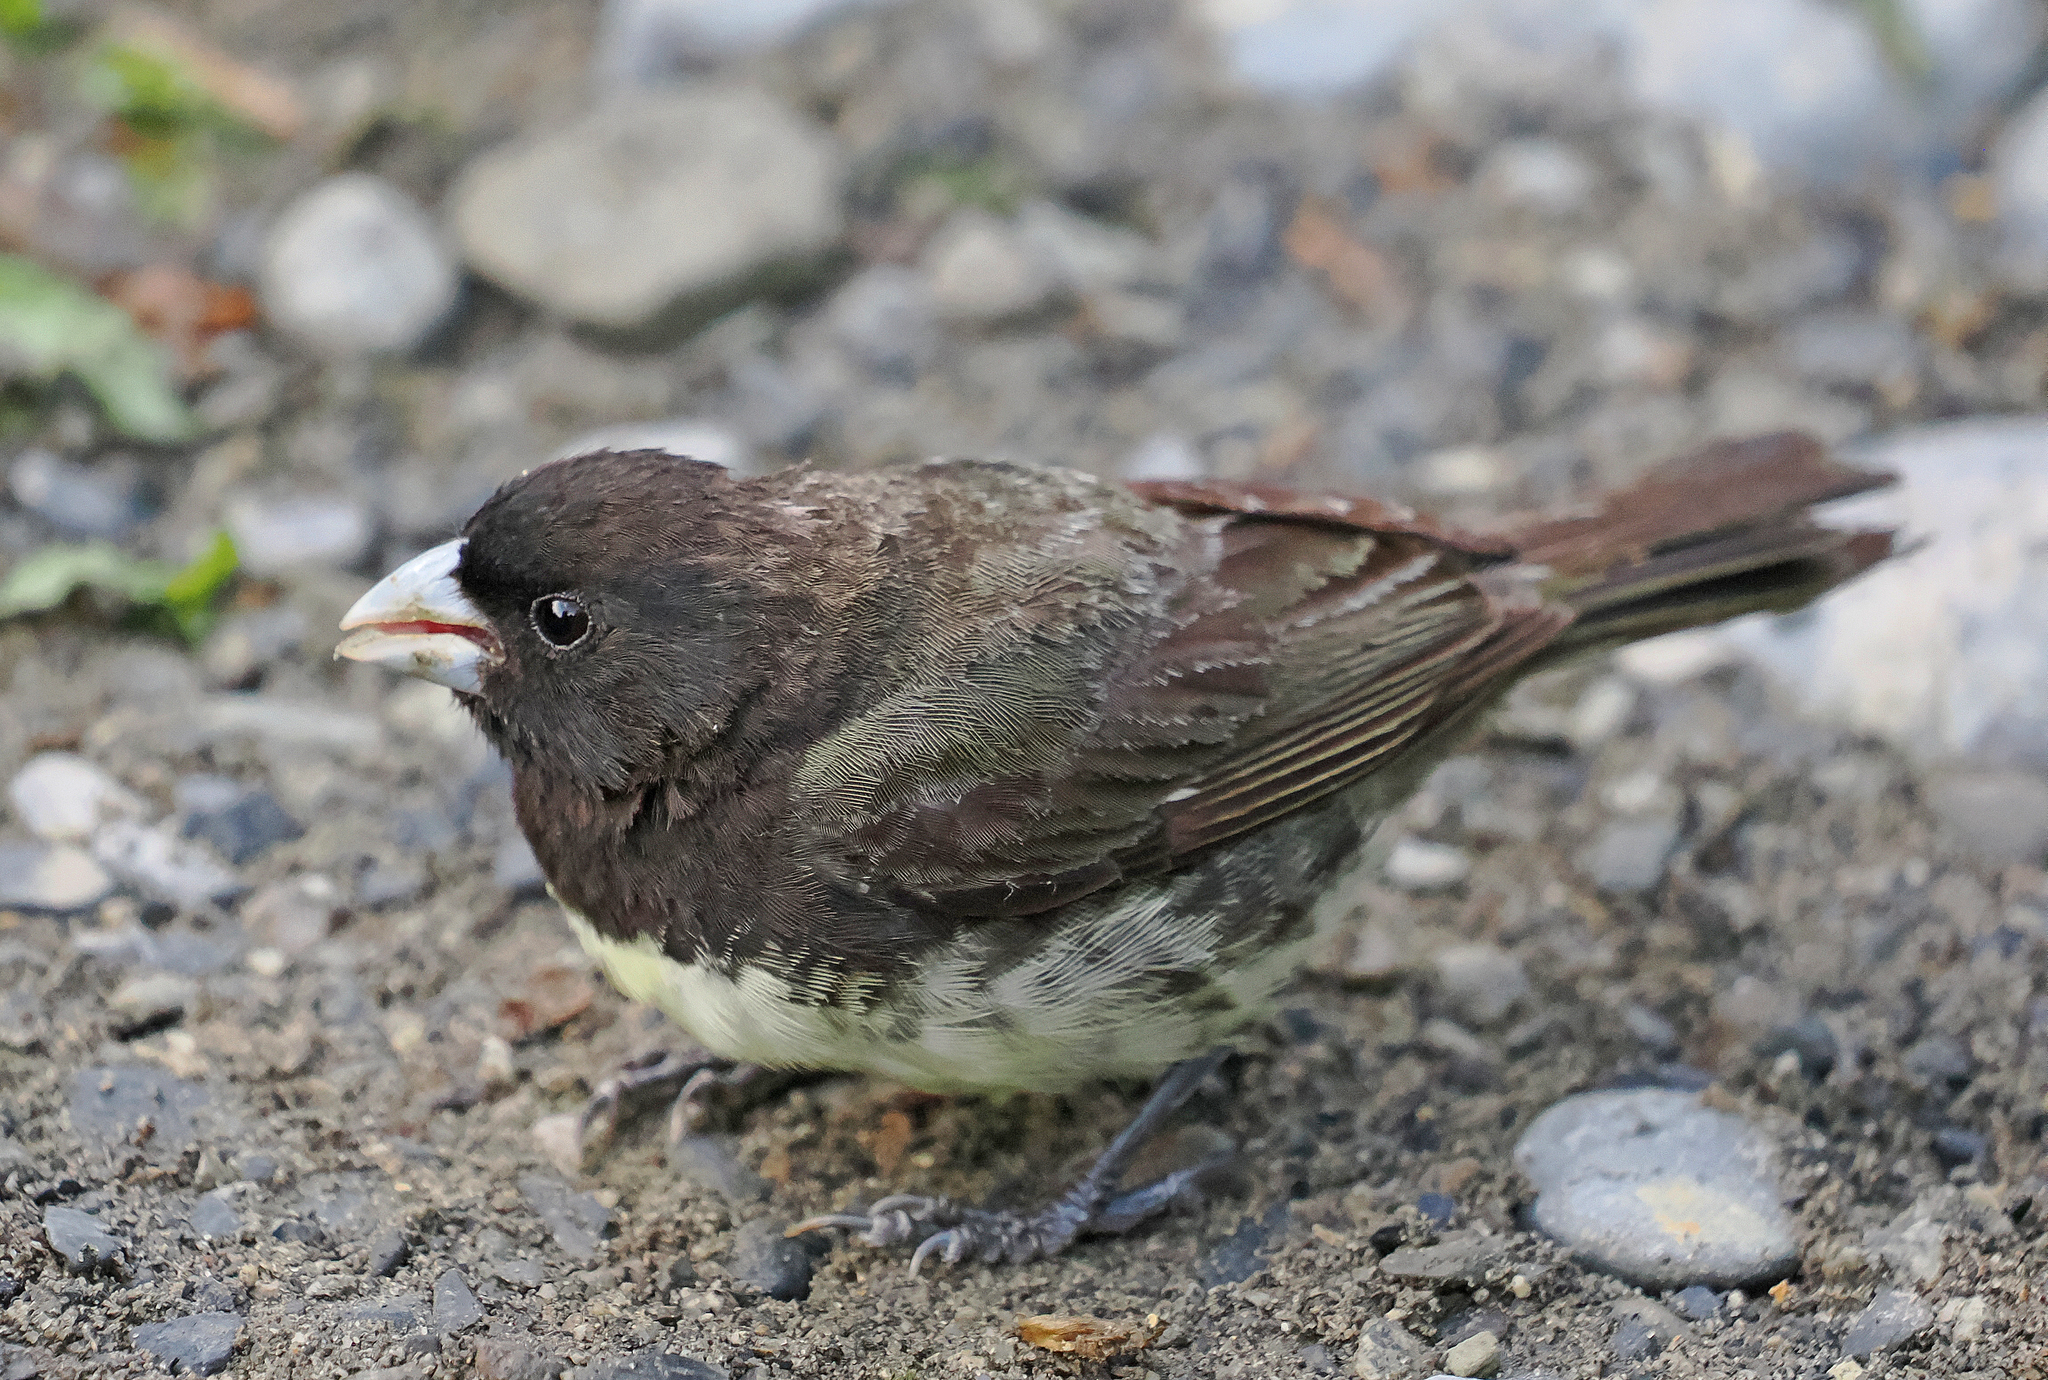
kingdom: Animalia
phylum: Chordata
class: Aves
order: Passeriformes
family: Thraupidae
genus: Sporophila
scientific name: Sporophila nigricollis
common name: Yellow-bellied seedeater
